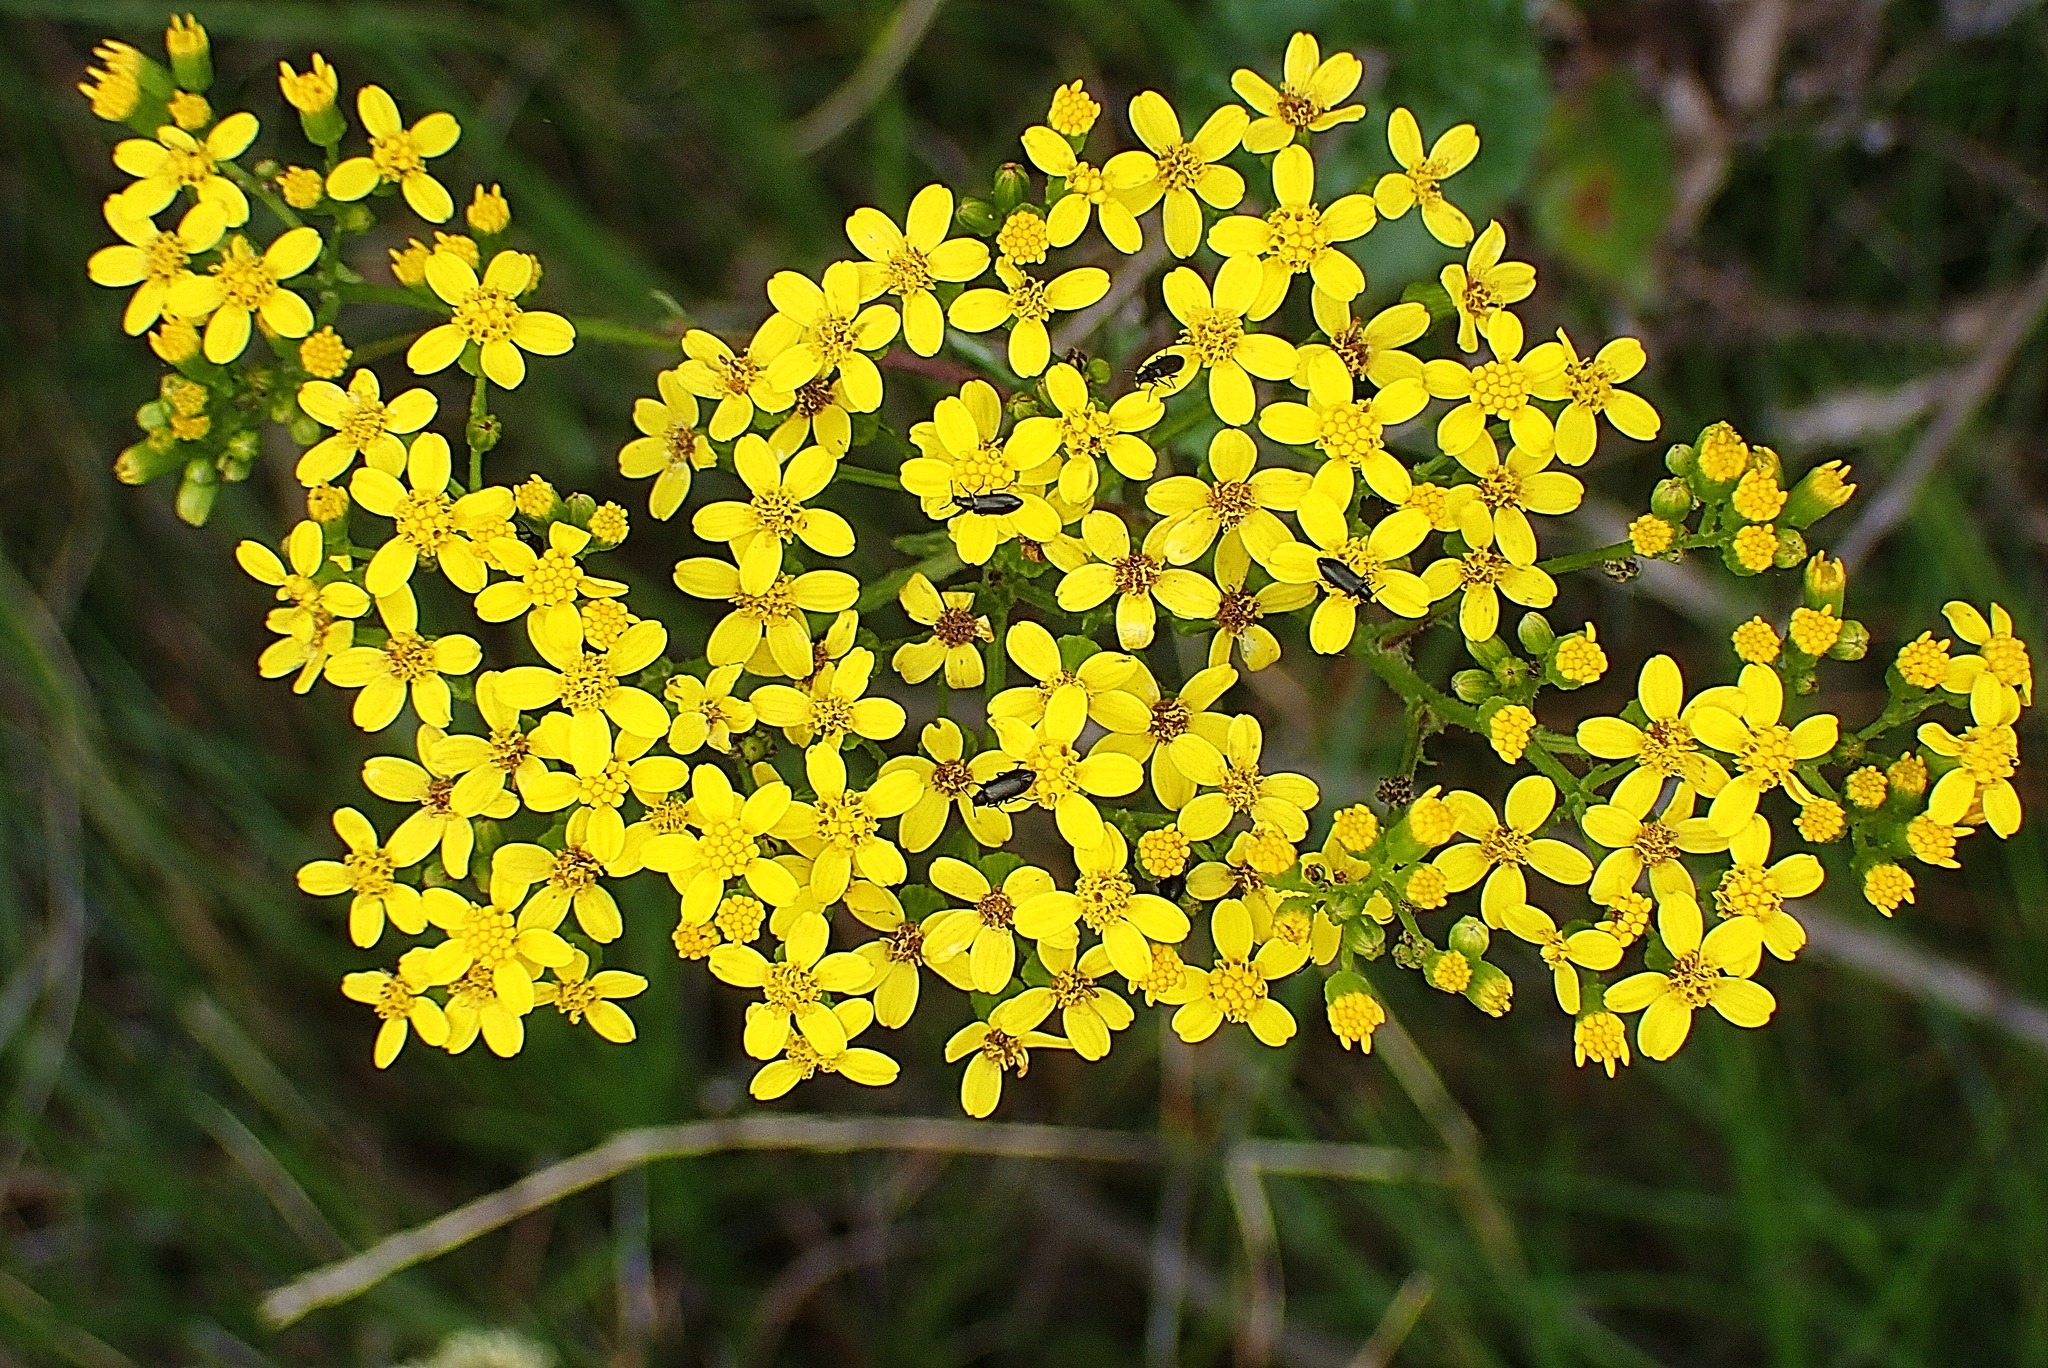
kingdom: Plantae
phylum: Tracheophyta
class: Magnoliopsida
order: Asterales
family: Asteraceae
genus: Senecio
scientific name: Senecio rigidus
